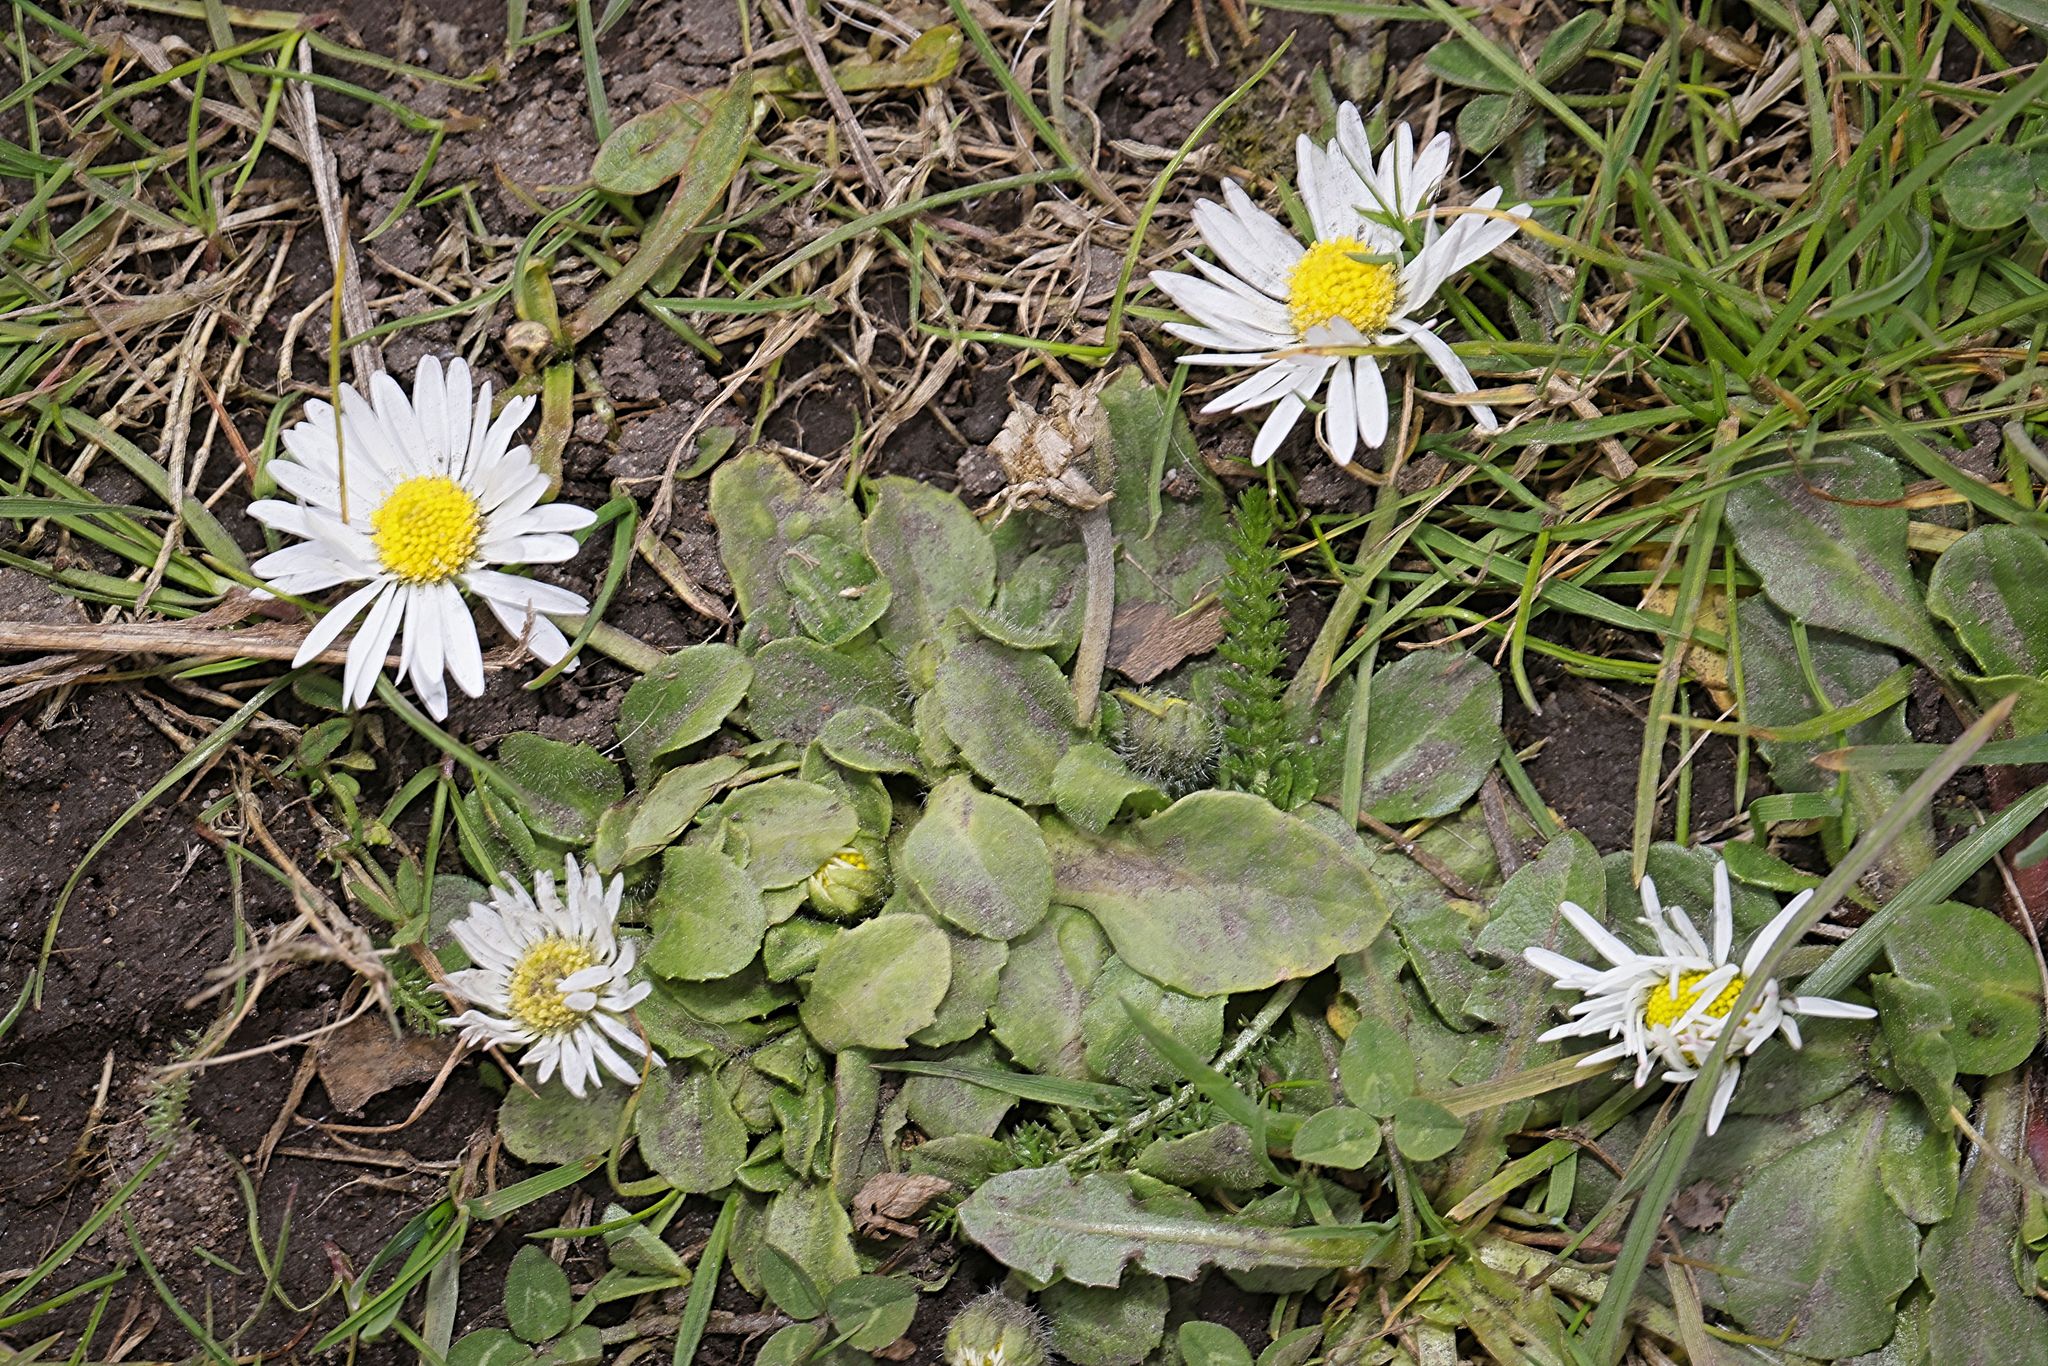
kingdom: Plantae
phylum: Tracheophyta
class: Magnoliopsida
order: Asterales
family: Asteraceae
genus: Bellis
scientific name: Bellis perennis
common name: Lawndaisy
